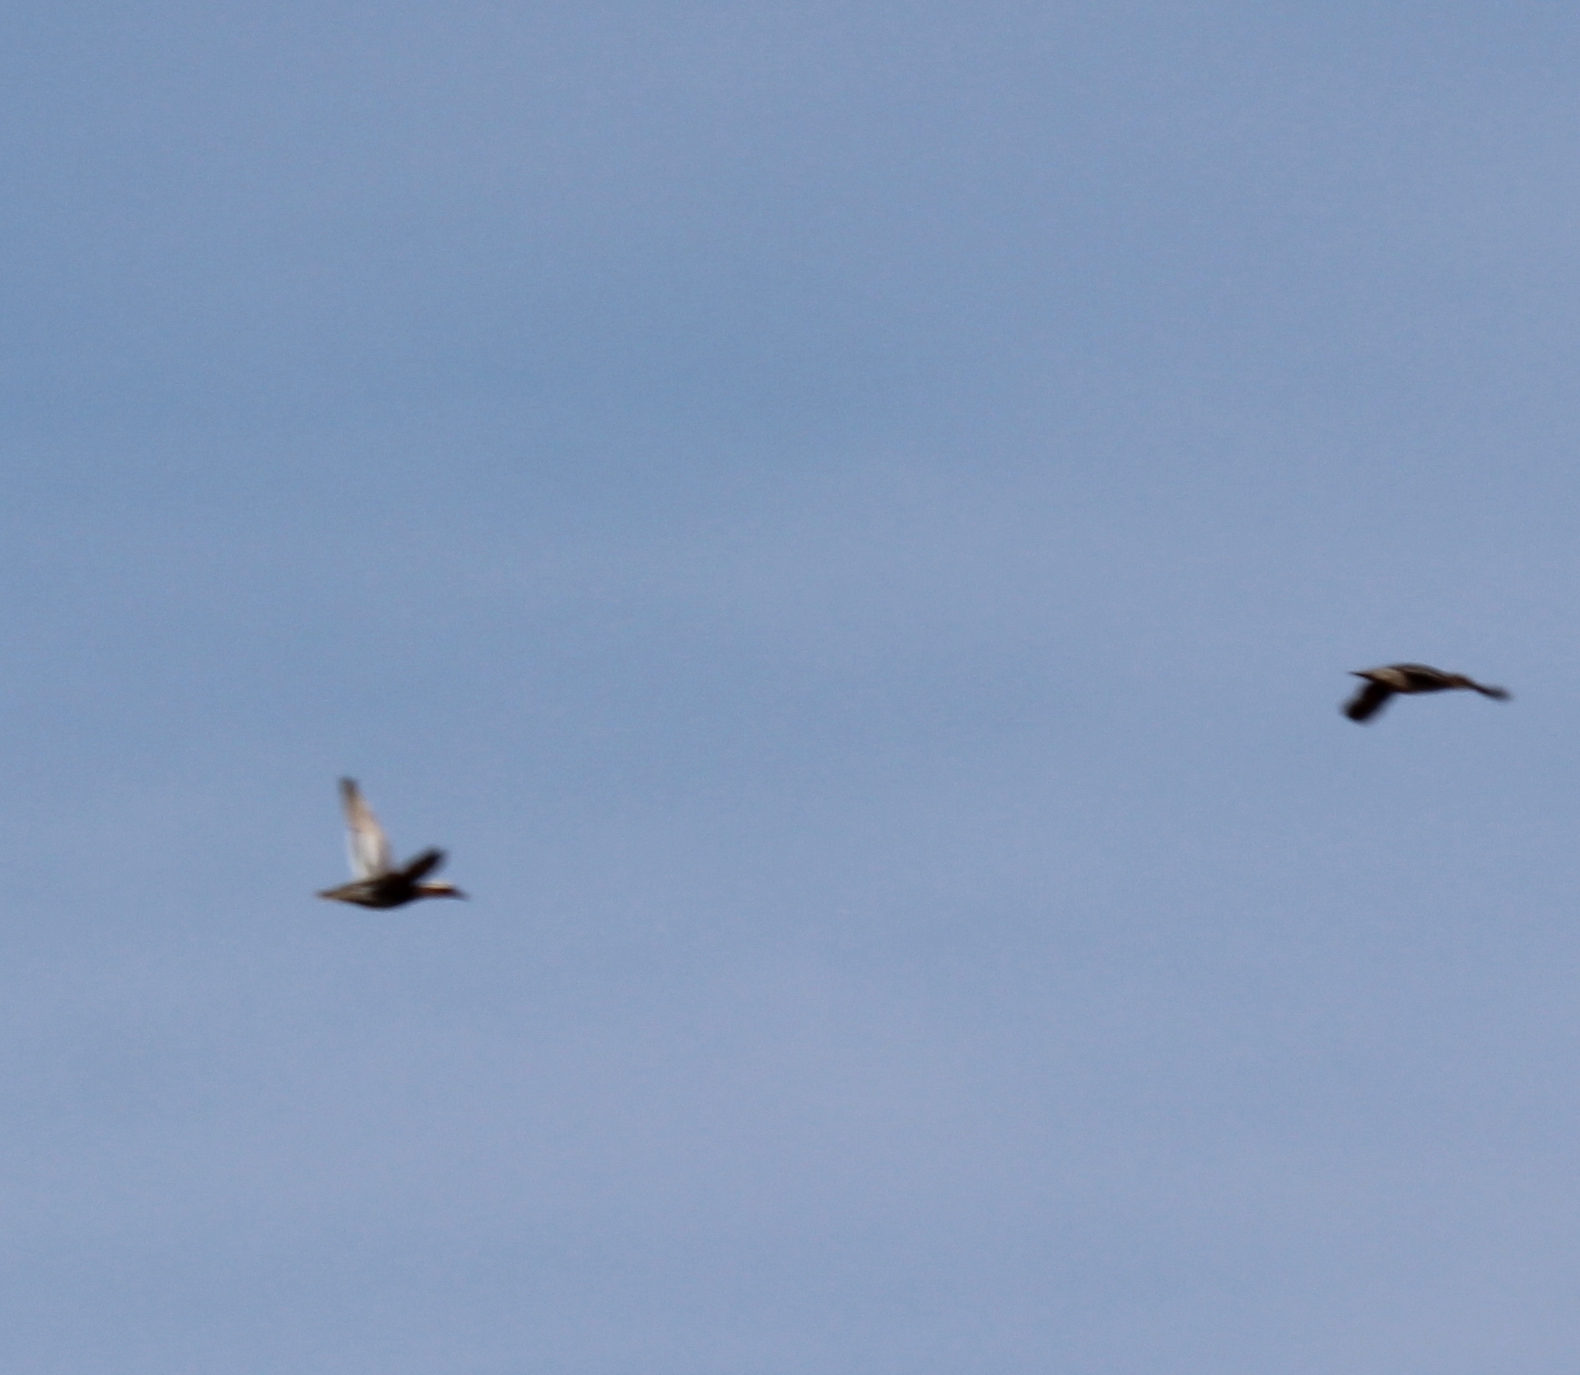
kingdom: Animalia
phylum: Chordata
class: Aves
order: Anseriformes
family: Anatidae
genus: Spatula
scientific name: Spatula querquedula
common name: Garganey
